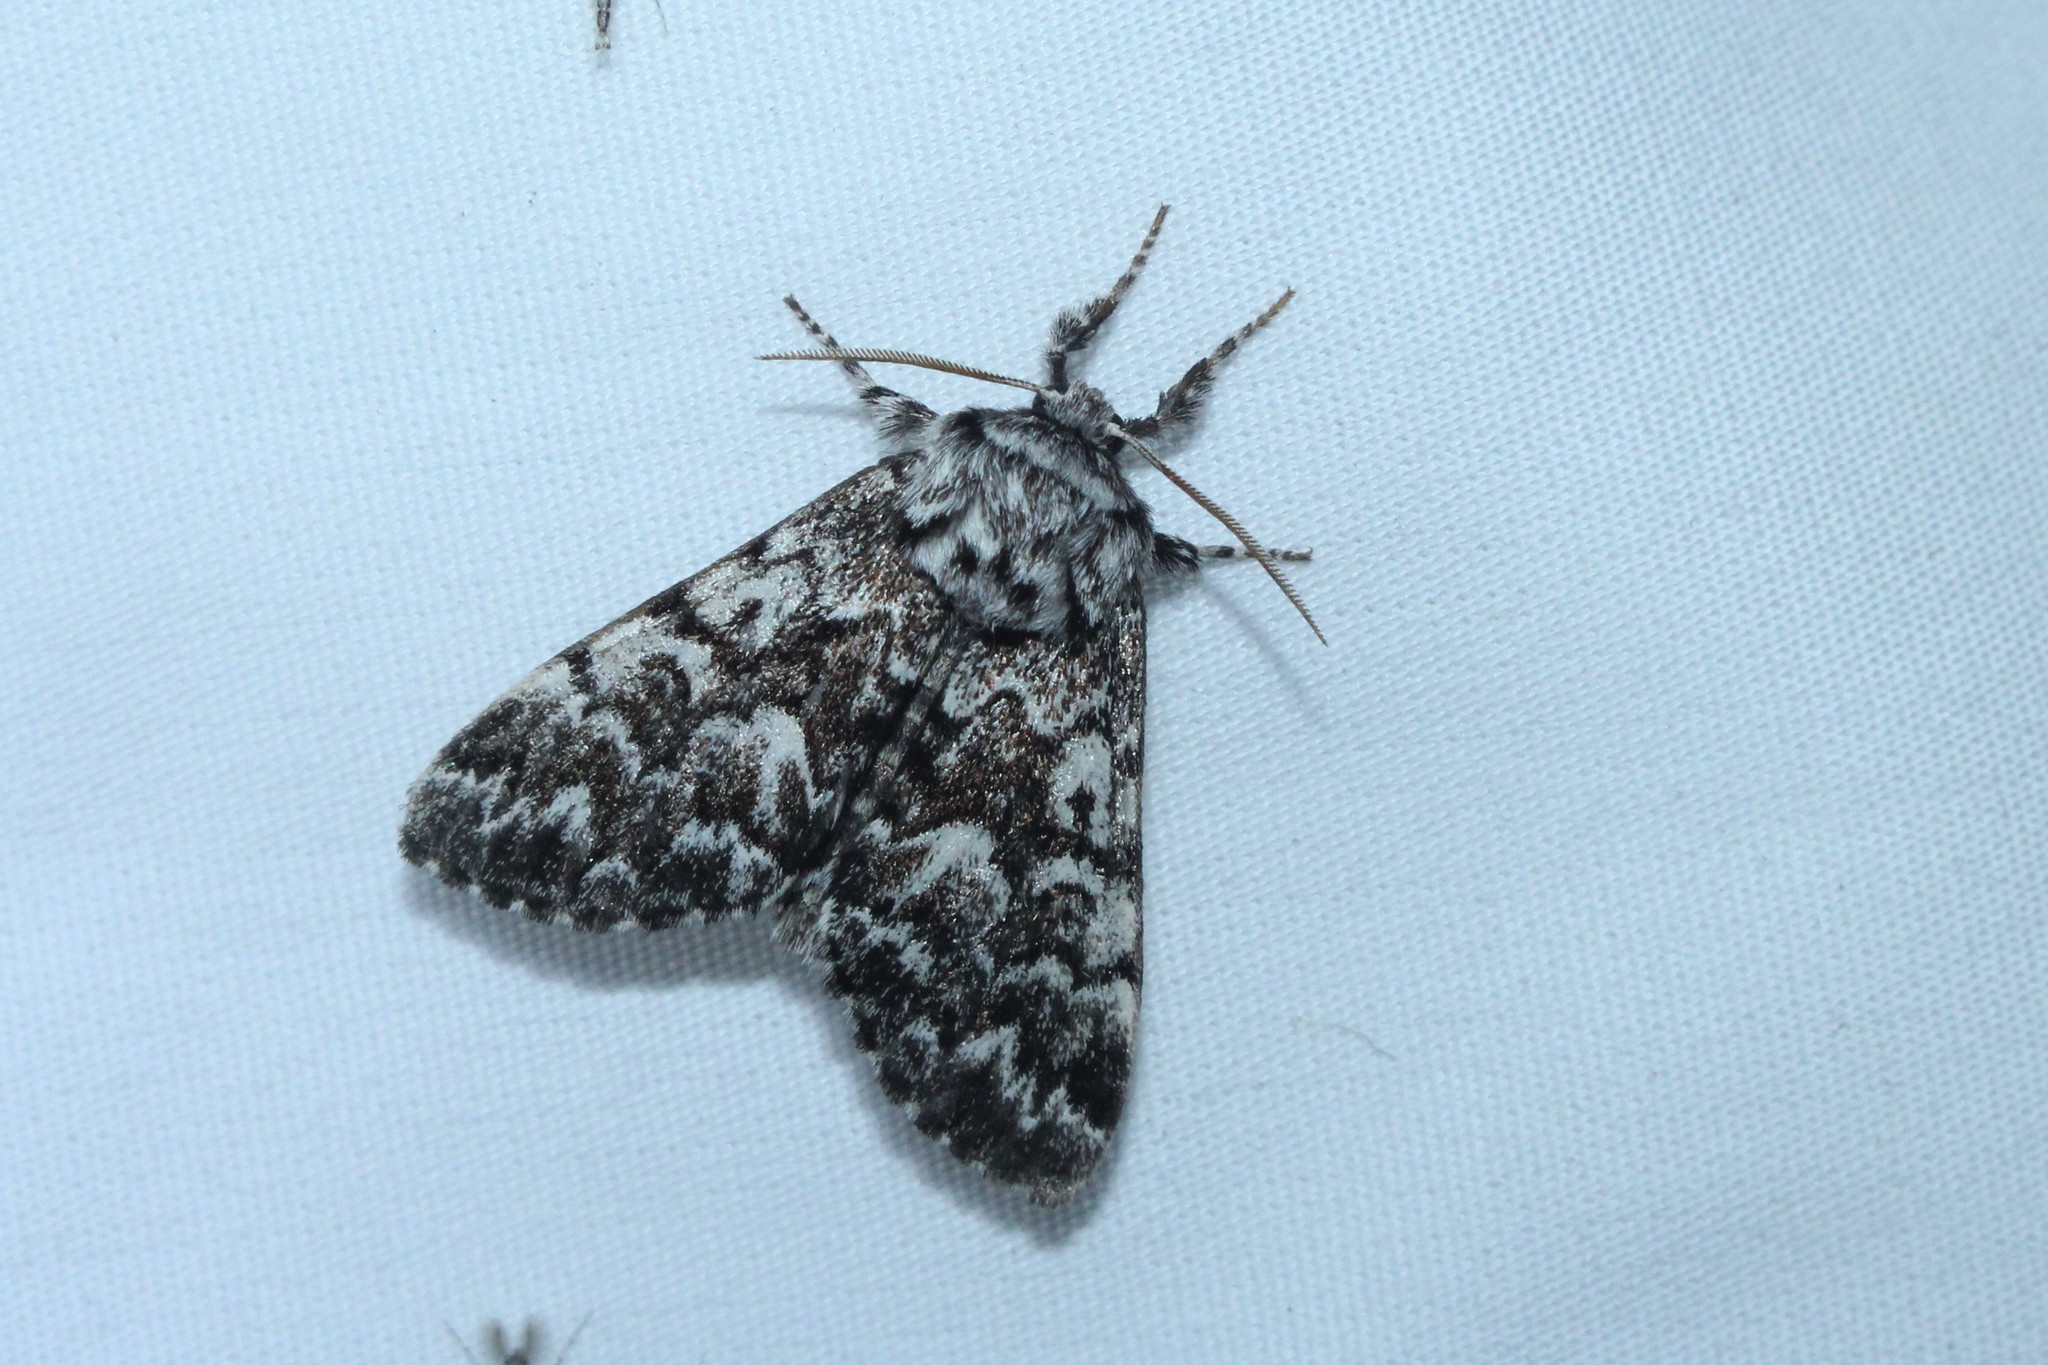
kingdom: Animalia
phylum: Arthropoda
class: Insecta
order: Lepidoptera
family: Noctuidae
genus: Panthea
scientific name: Panthea acronyctoides
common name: Black zigzag moth
